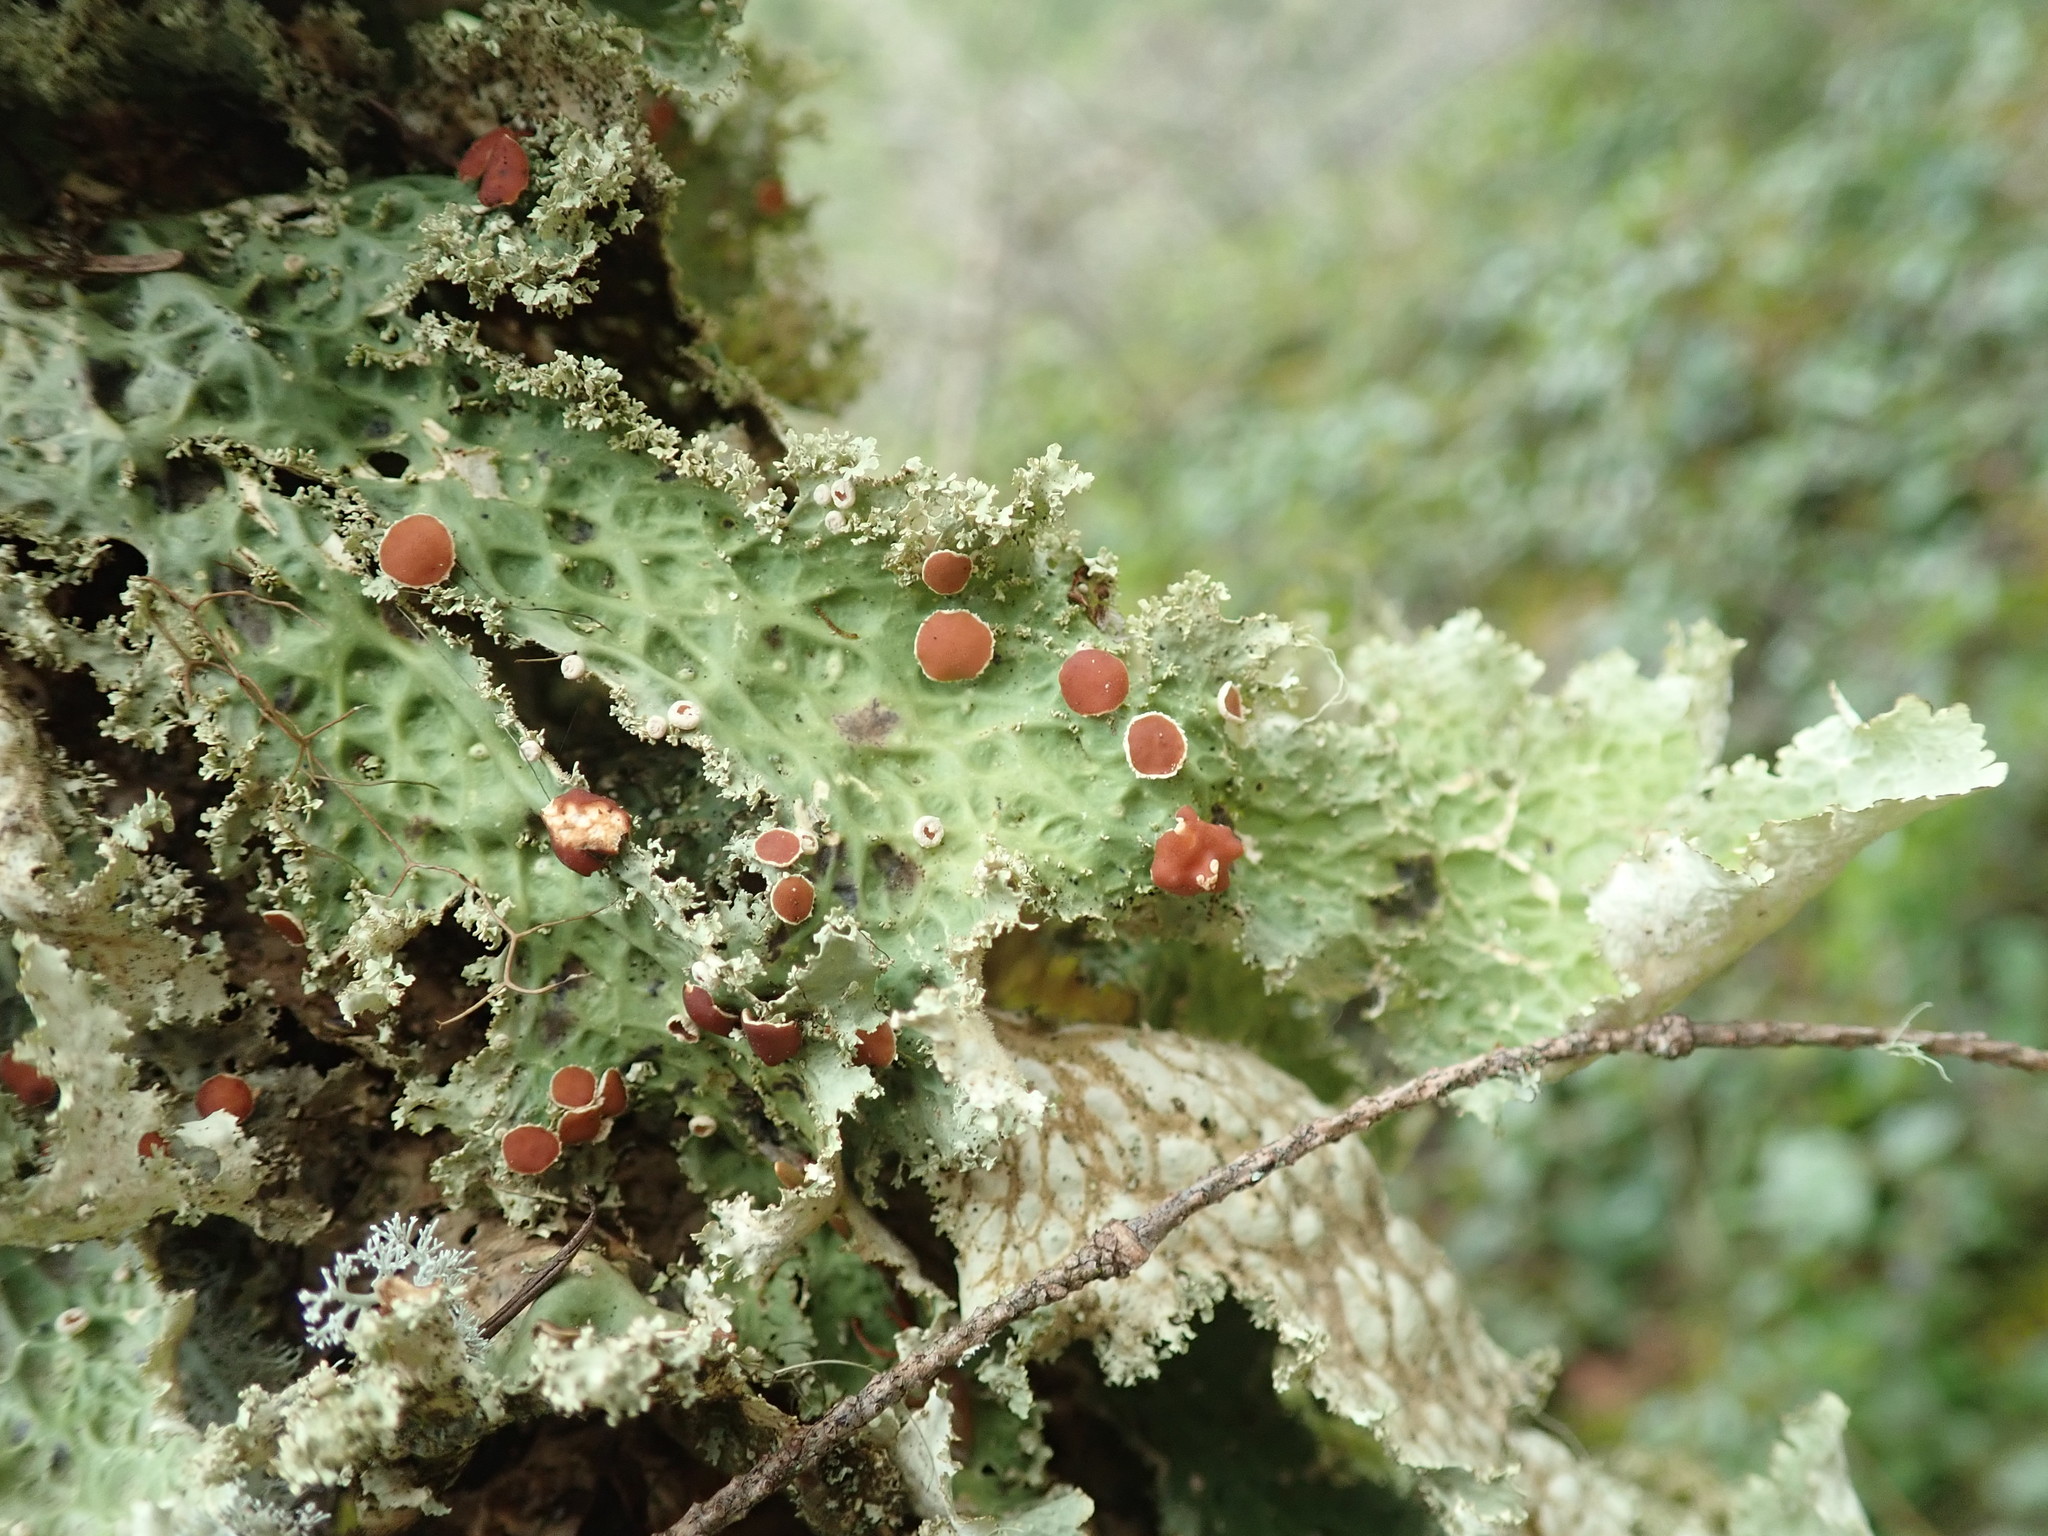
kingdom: Fungi
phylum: Ascomycota
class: Lecanoromycetes
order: Peltigerales
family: Lobariaceae
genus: Lobaria
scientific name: Lobaria oregana
